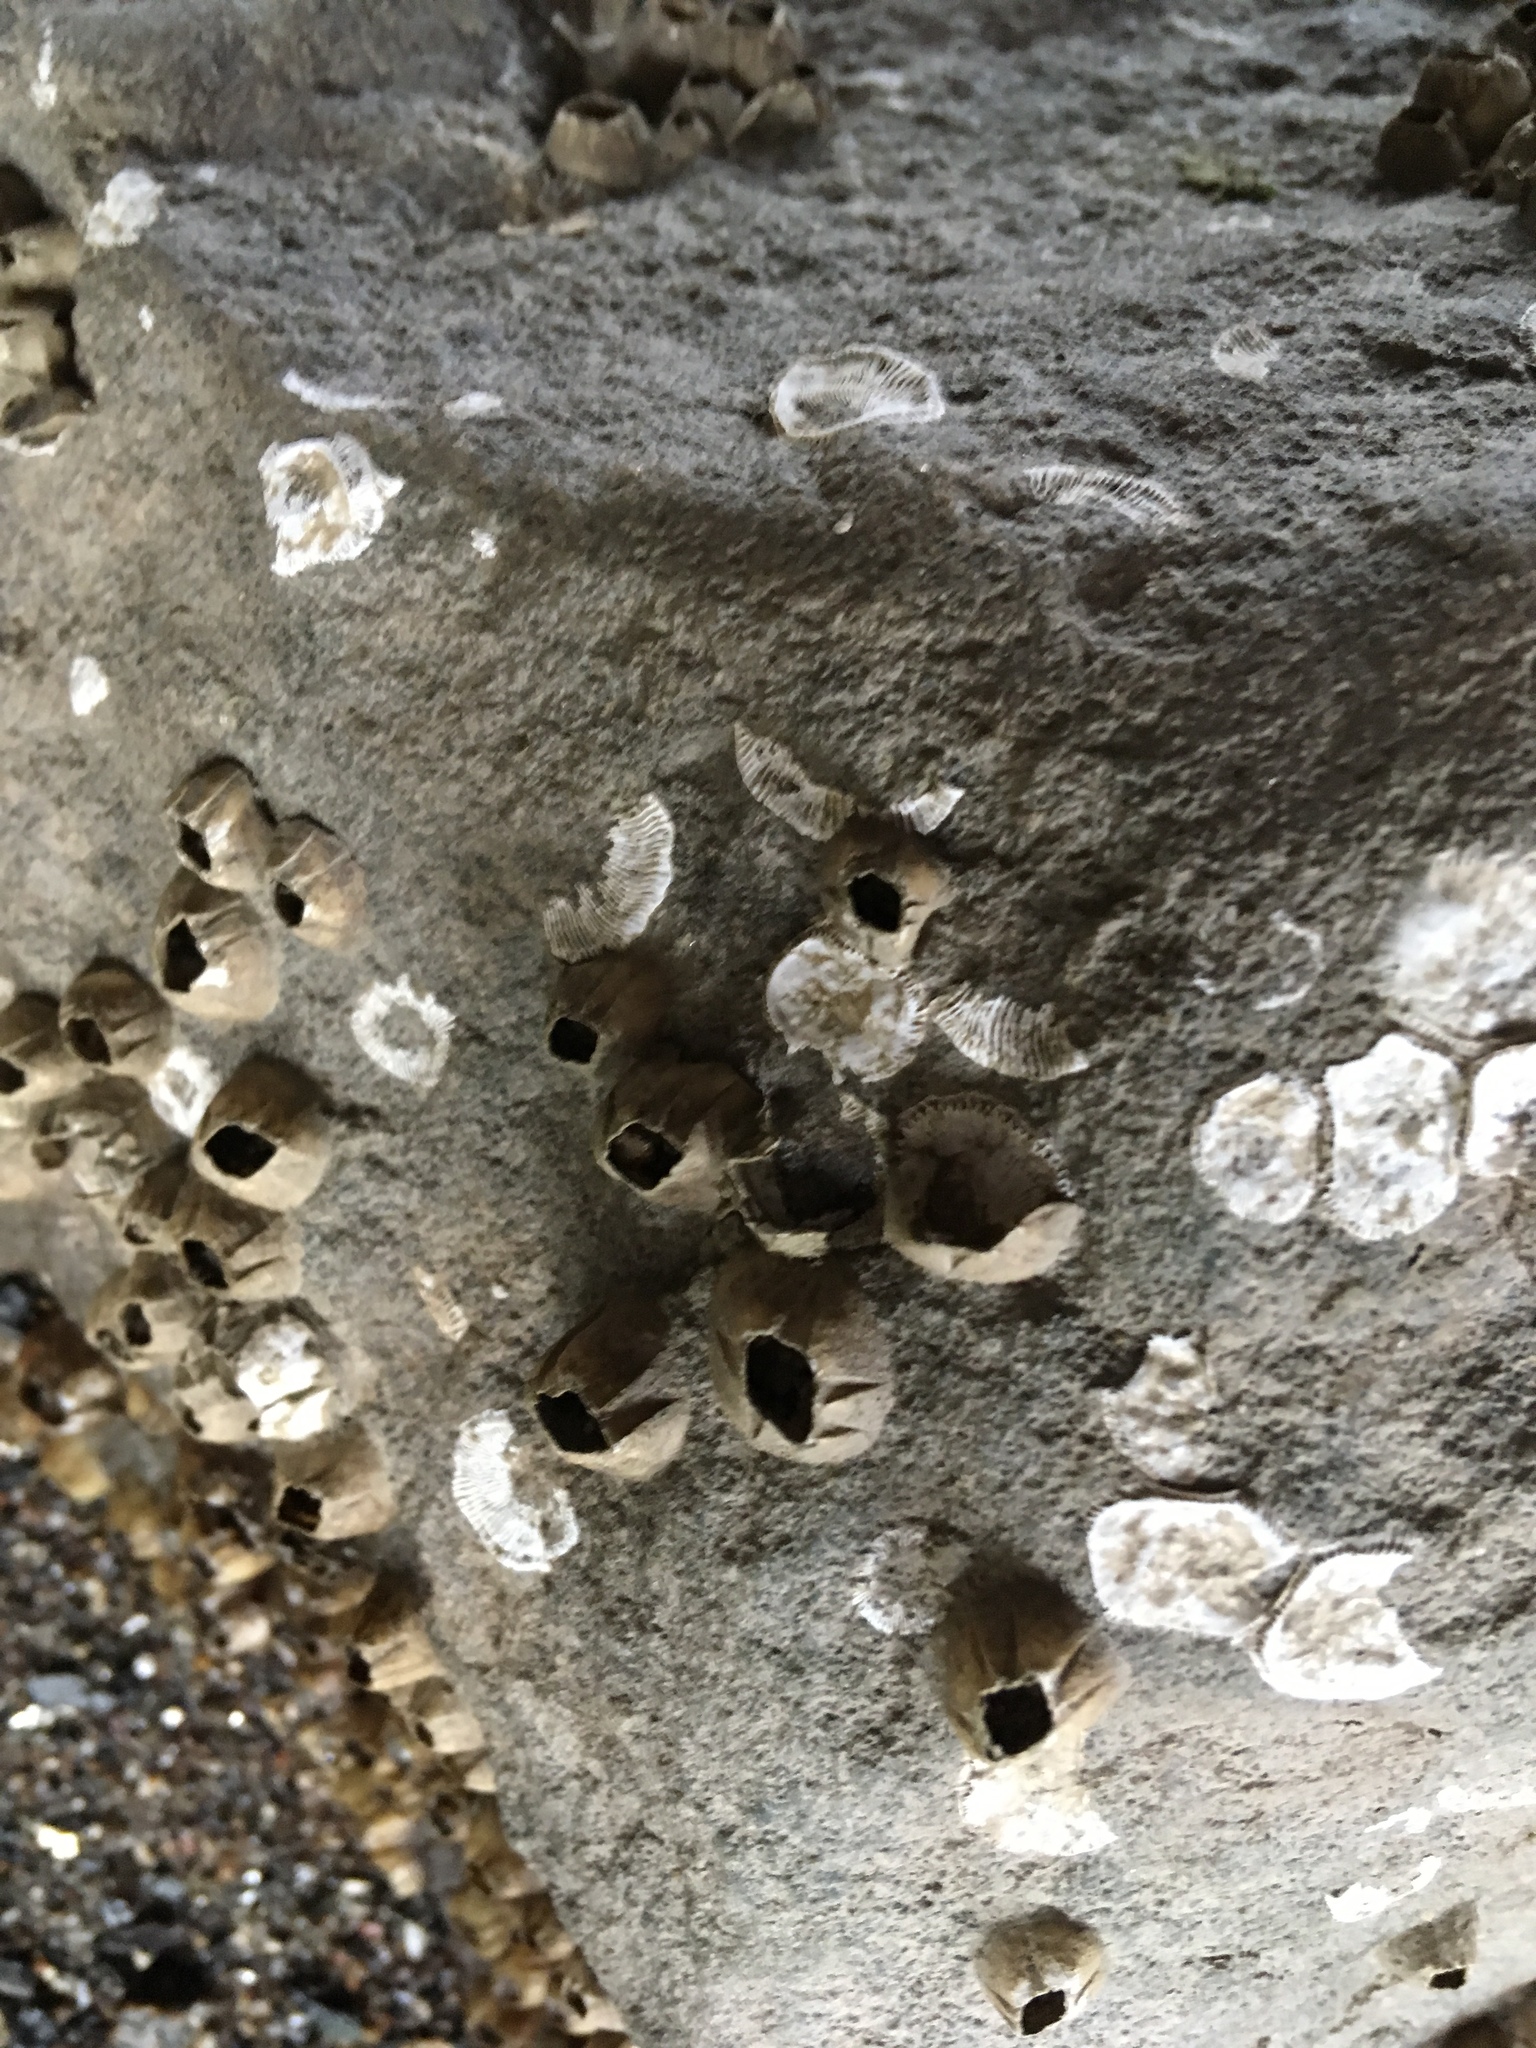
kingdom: Animalia
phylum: Arthropoda
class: Maxillopoda
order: Sessilia
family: Balanidae
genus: Amphibalanus
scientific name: Amphibalanus subalbidus
